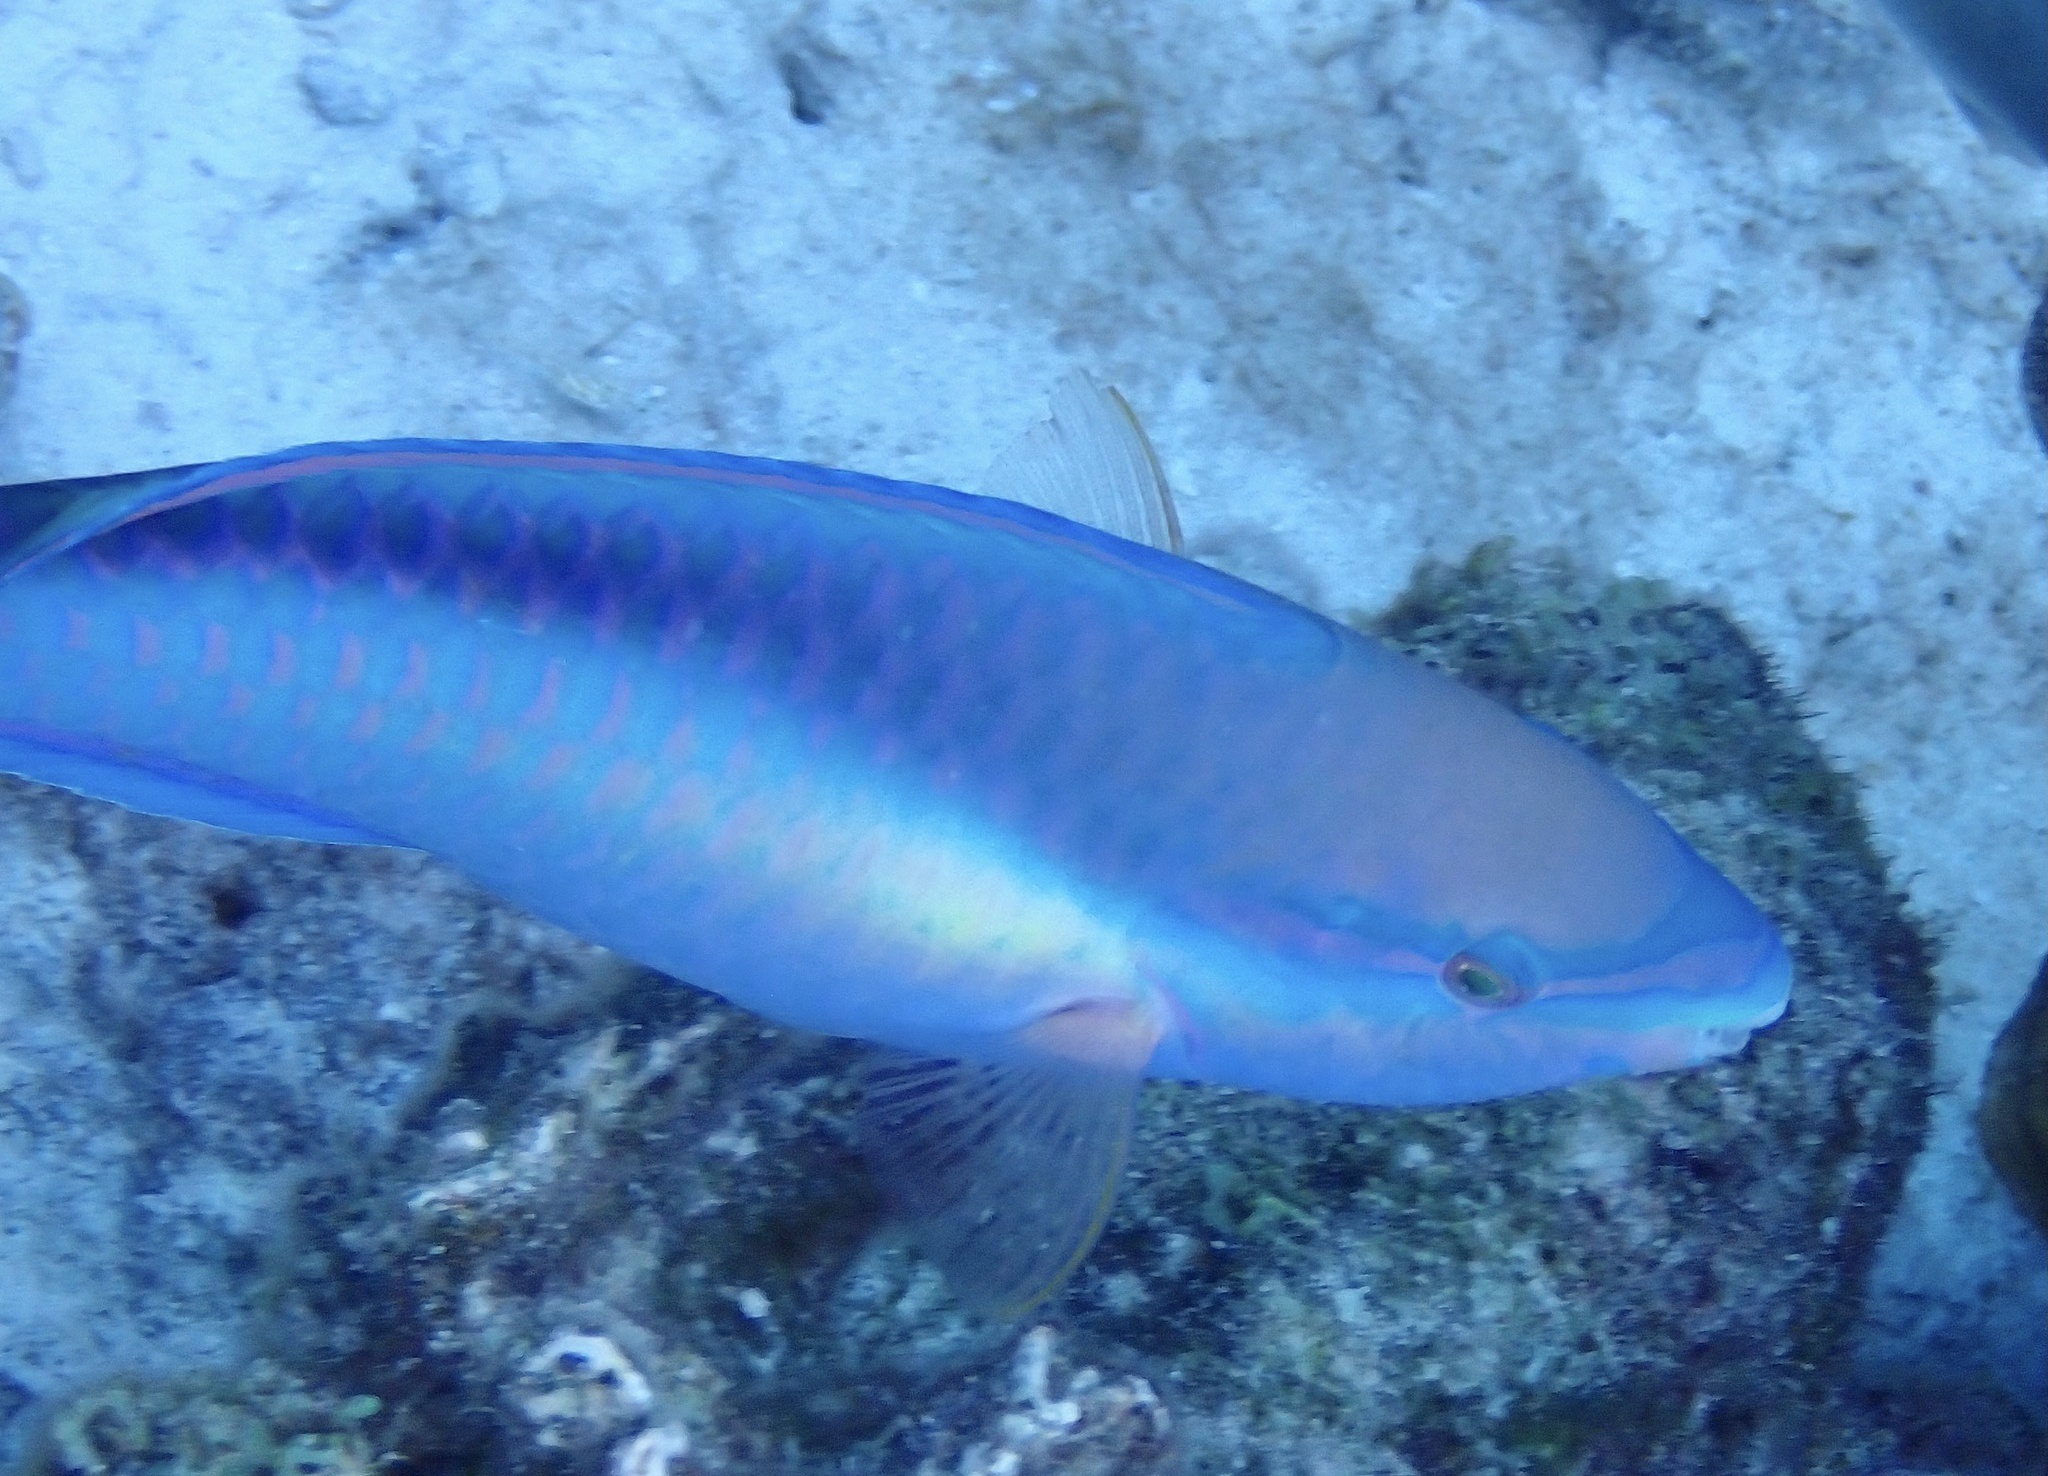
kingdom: Animalia
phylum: Chordata
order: Perciformes
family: Scaridae
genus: Scarus
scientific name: Scarus taeniopterus
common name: Princess parrotfish
